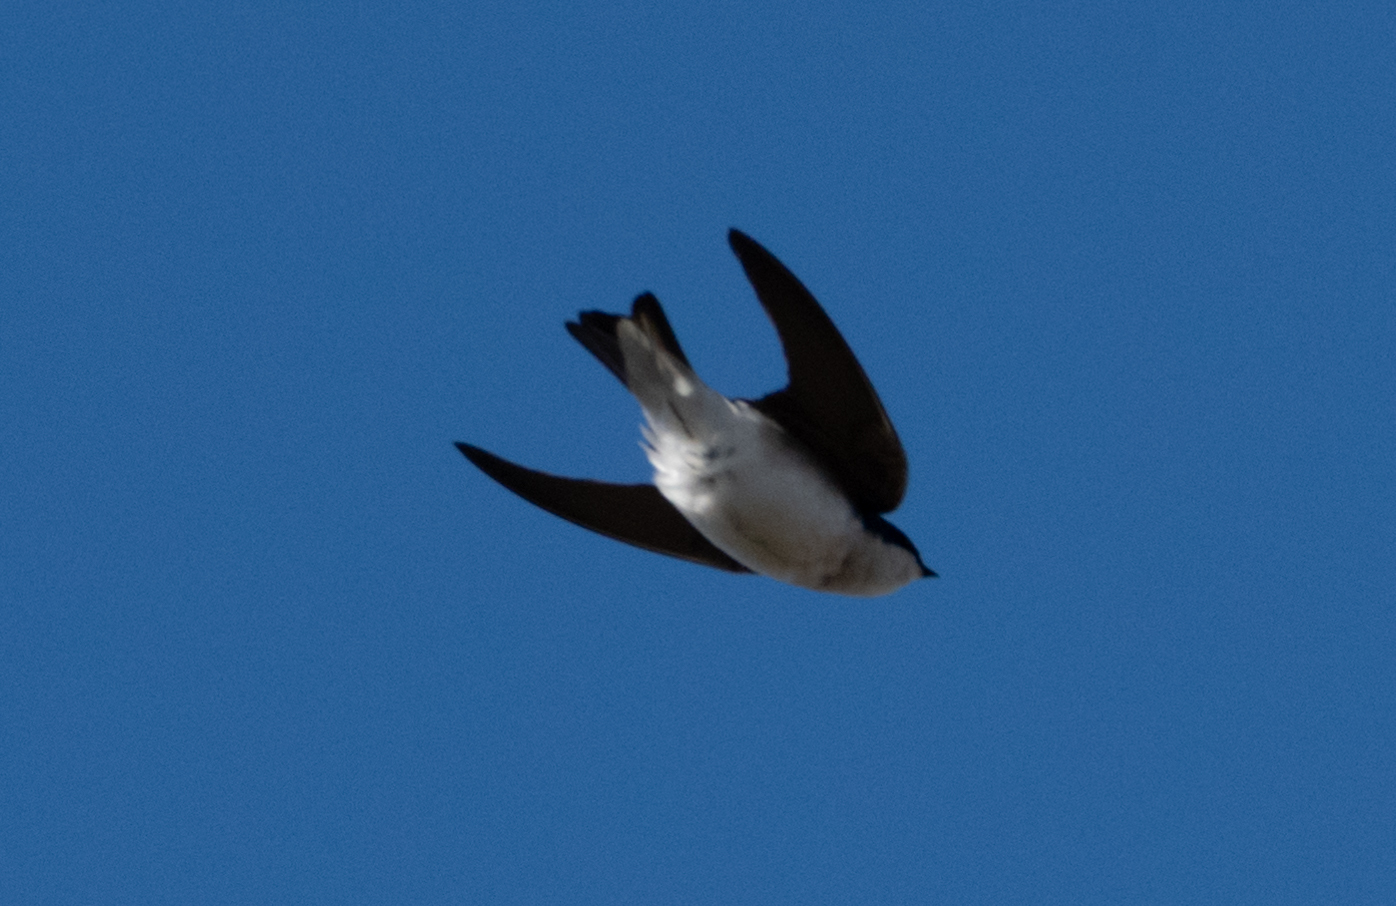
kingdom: Animalia
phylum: Chordata
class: Aves
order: Passeriformes
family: Hirundinidae
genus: Tachycineta
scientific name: Tachycineta bicolor
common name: Tree swallow
